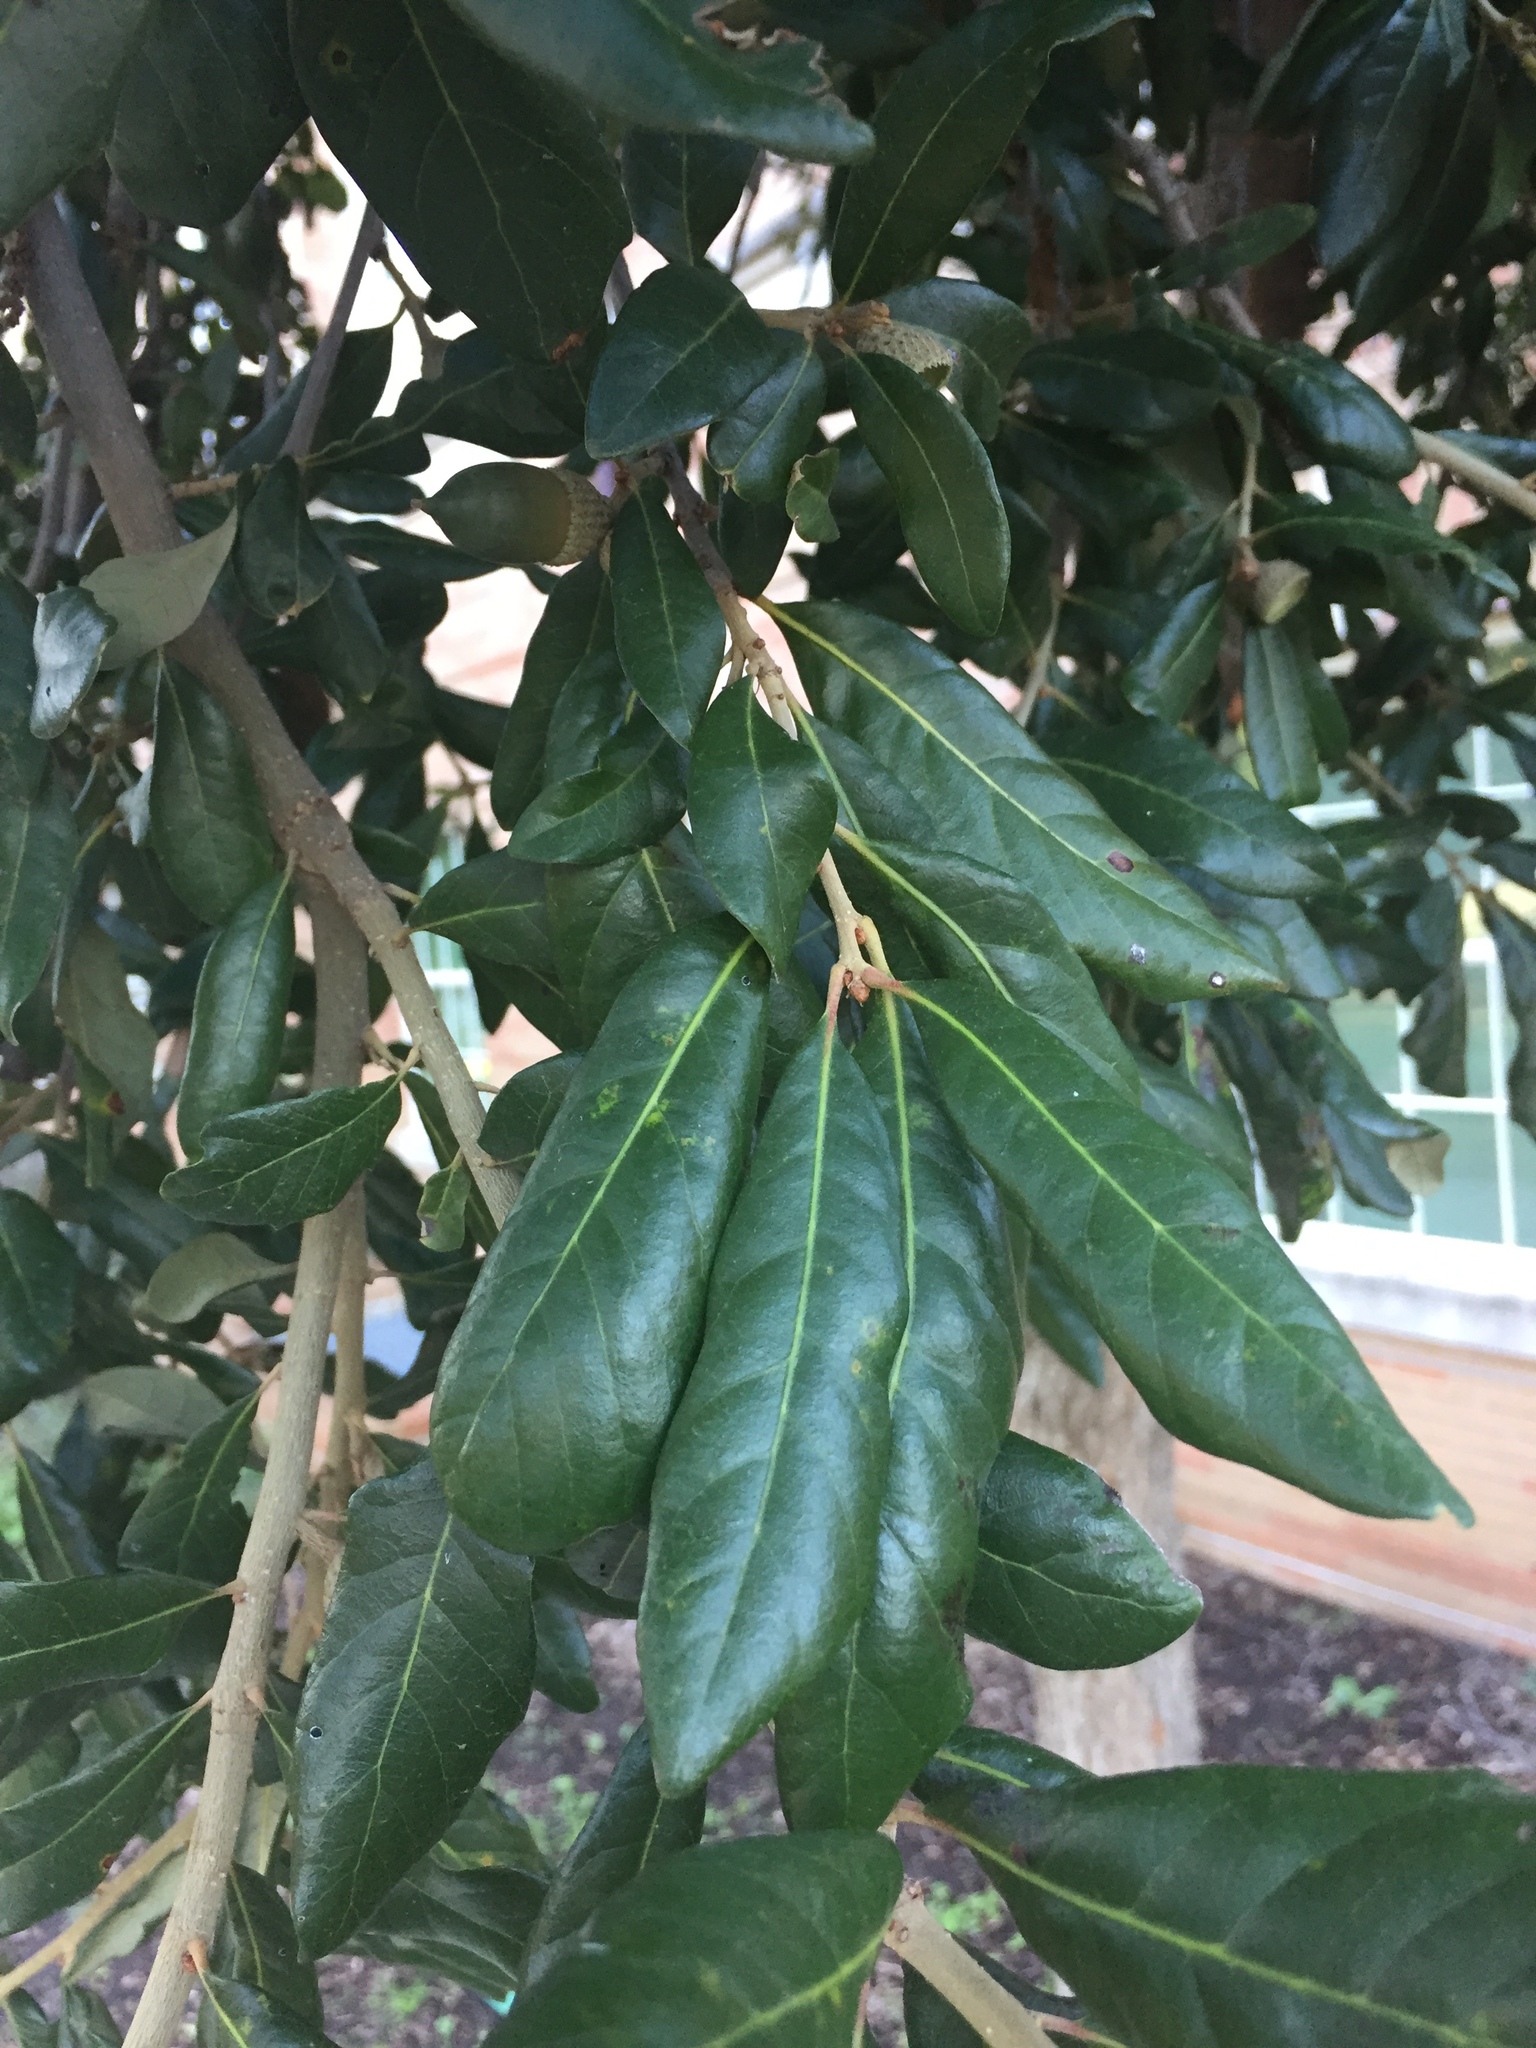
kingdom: Plantae
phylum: Tracheophyta
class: Magnoliopsida
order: Fagales
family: Fagaceae
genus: Quercus
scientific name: Quercus virginiana
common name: Southern live oak
